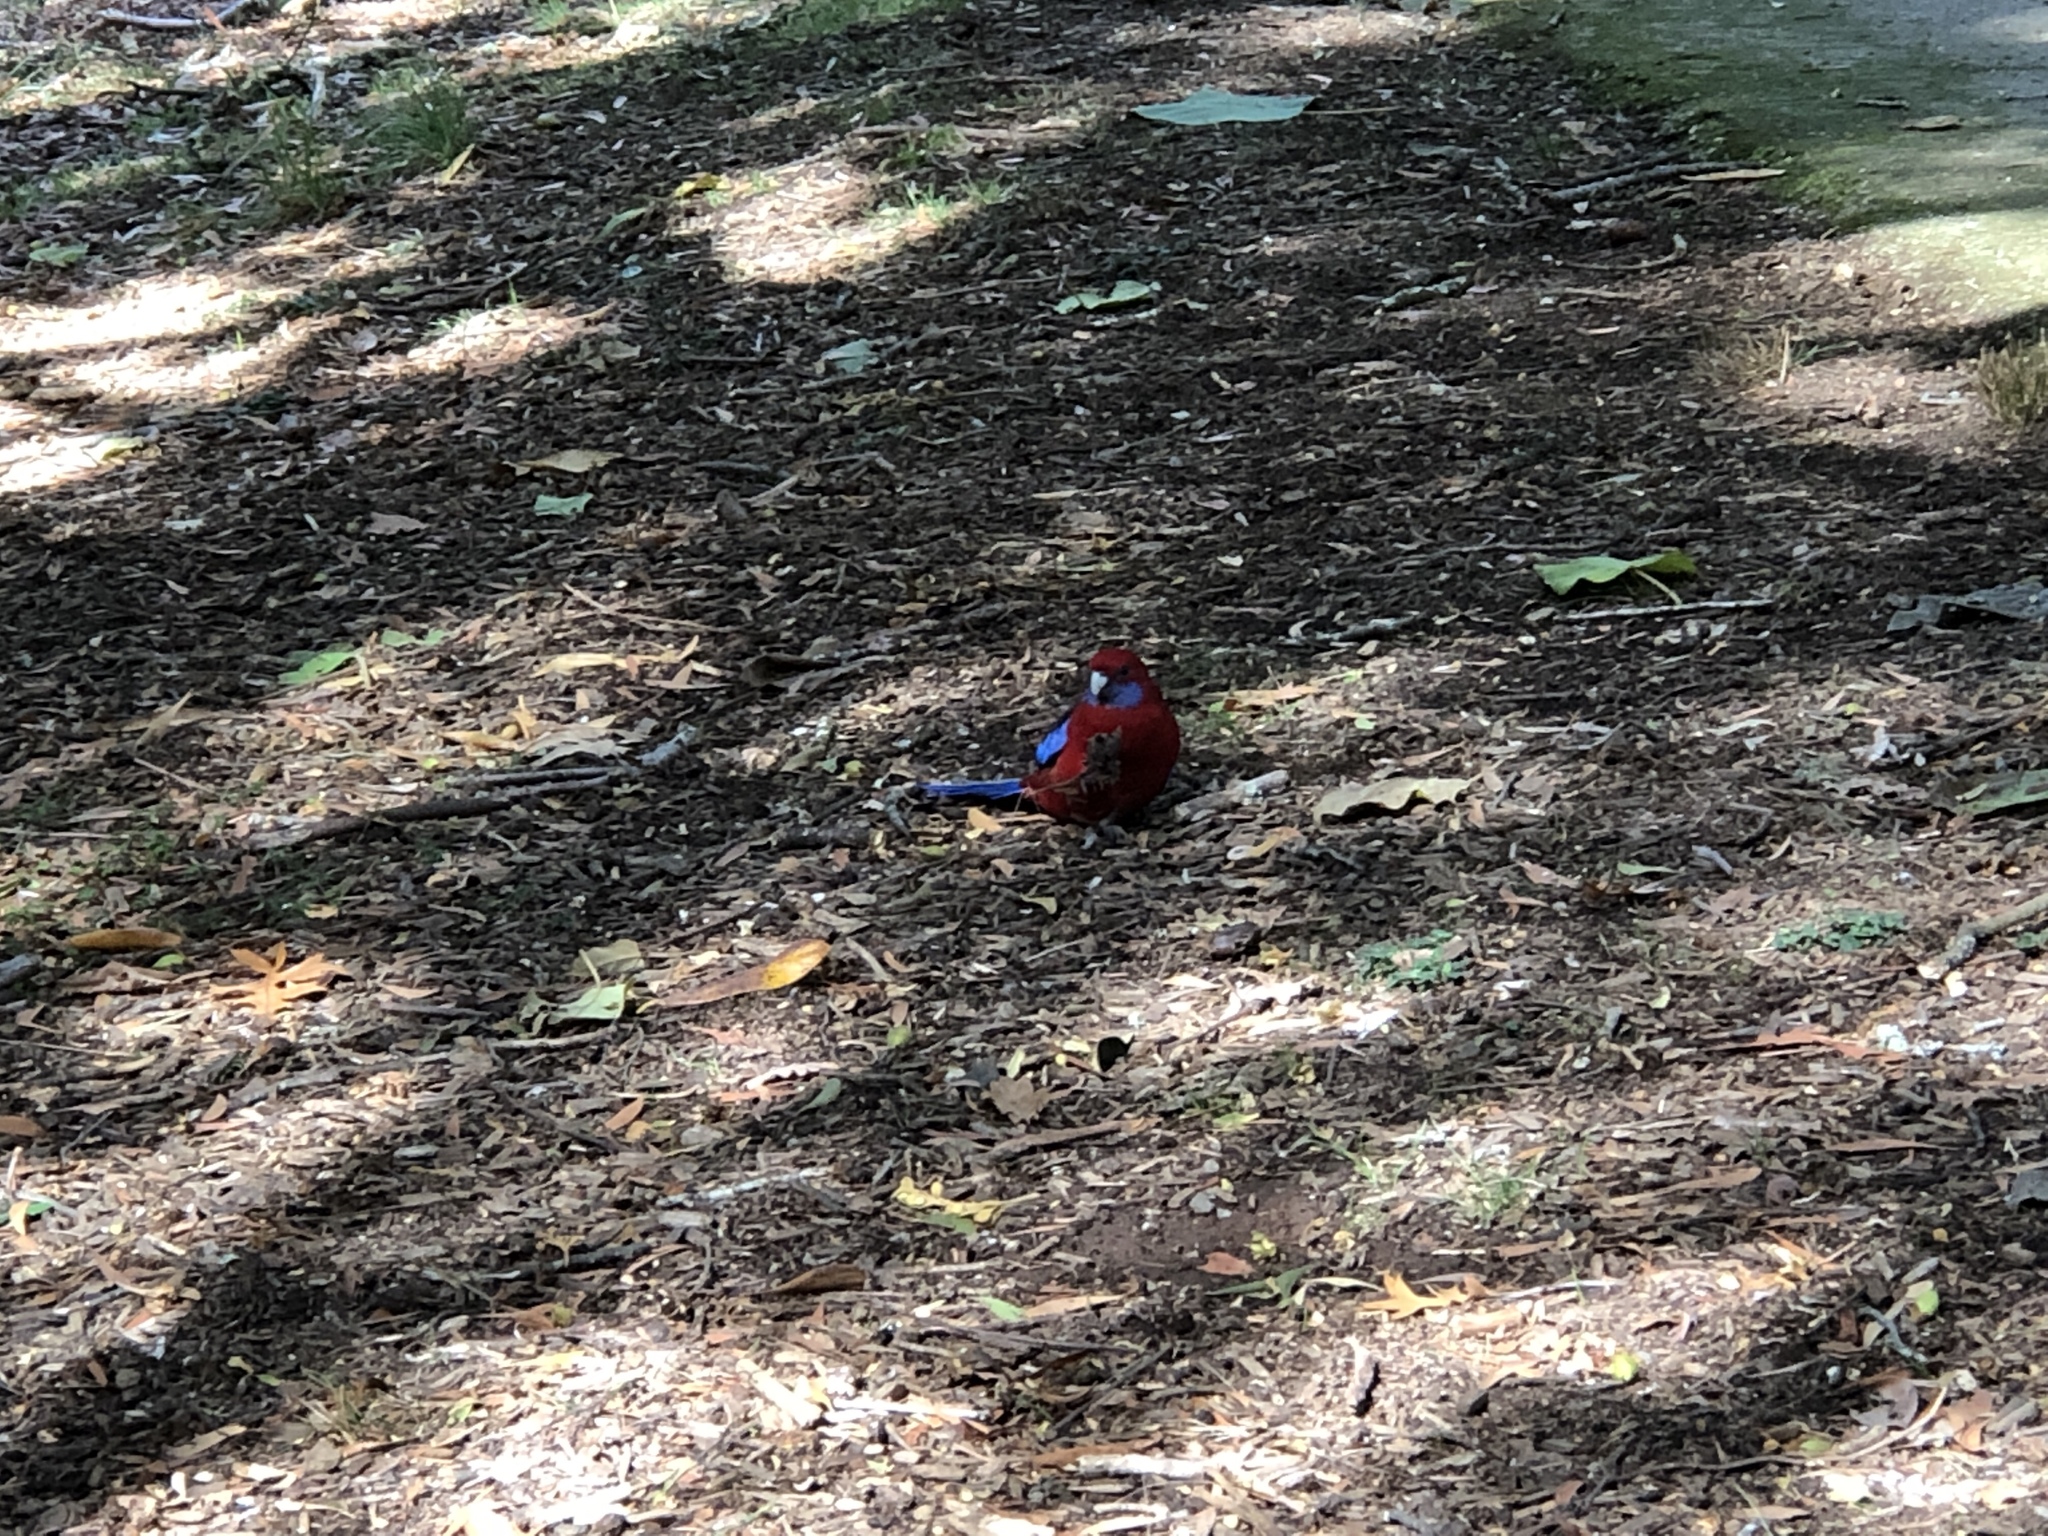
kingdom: Animalia
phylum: Chordata
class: Aves
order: Psittaciformes
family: Psittacidae
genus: Platycercus
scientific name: Platycercus elegans
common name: Crimson rosella
